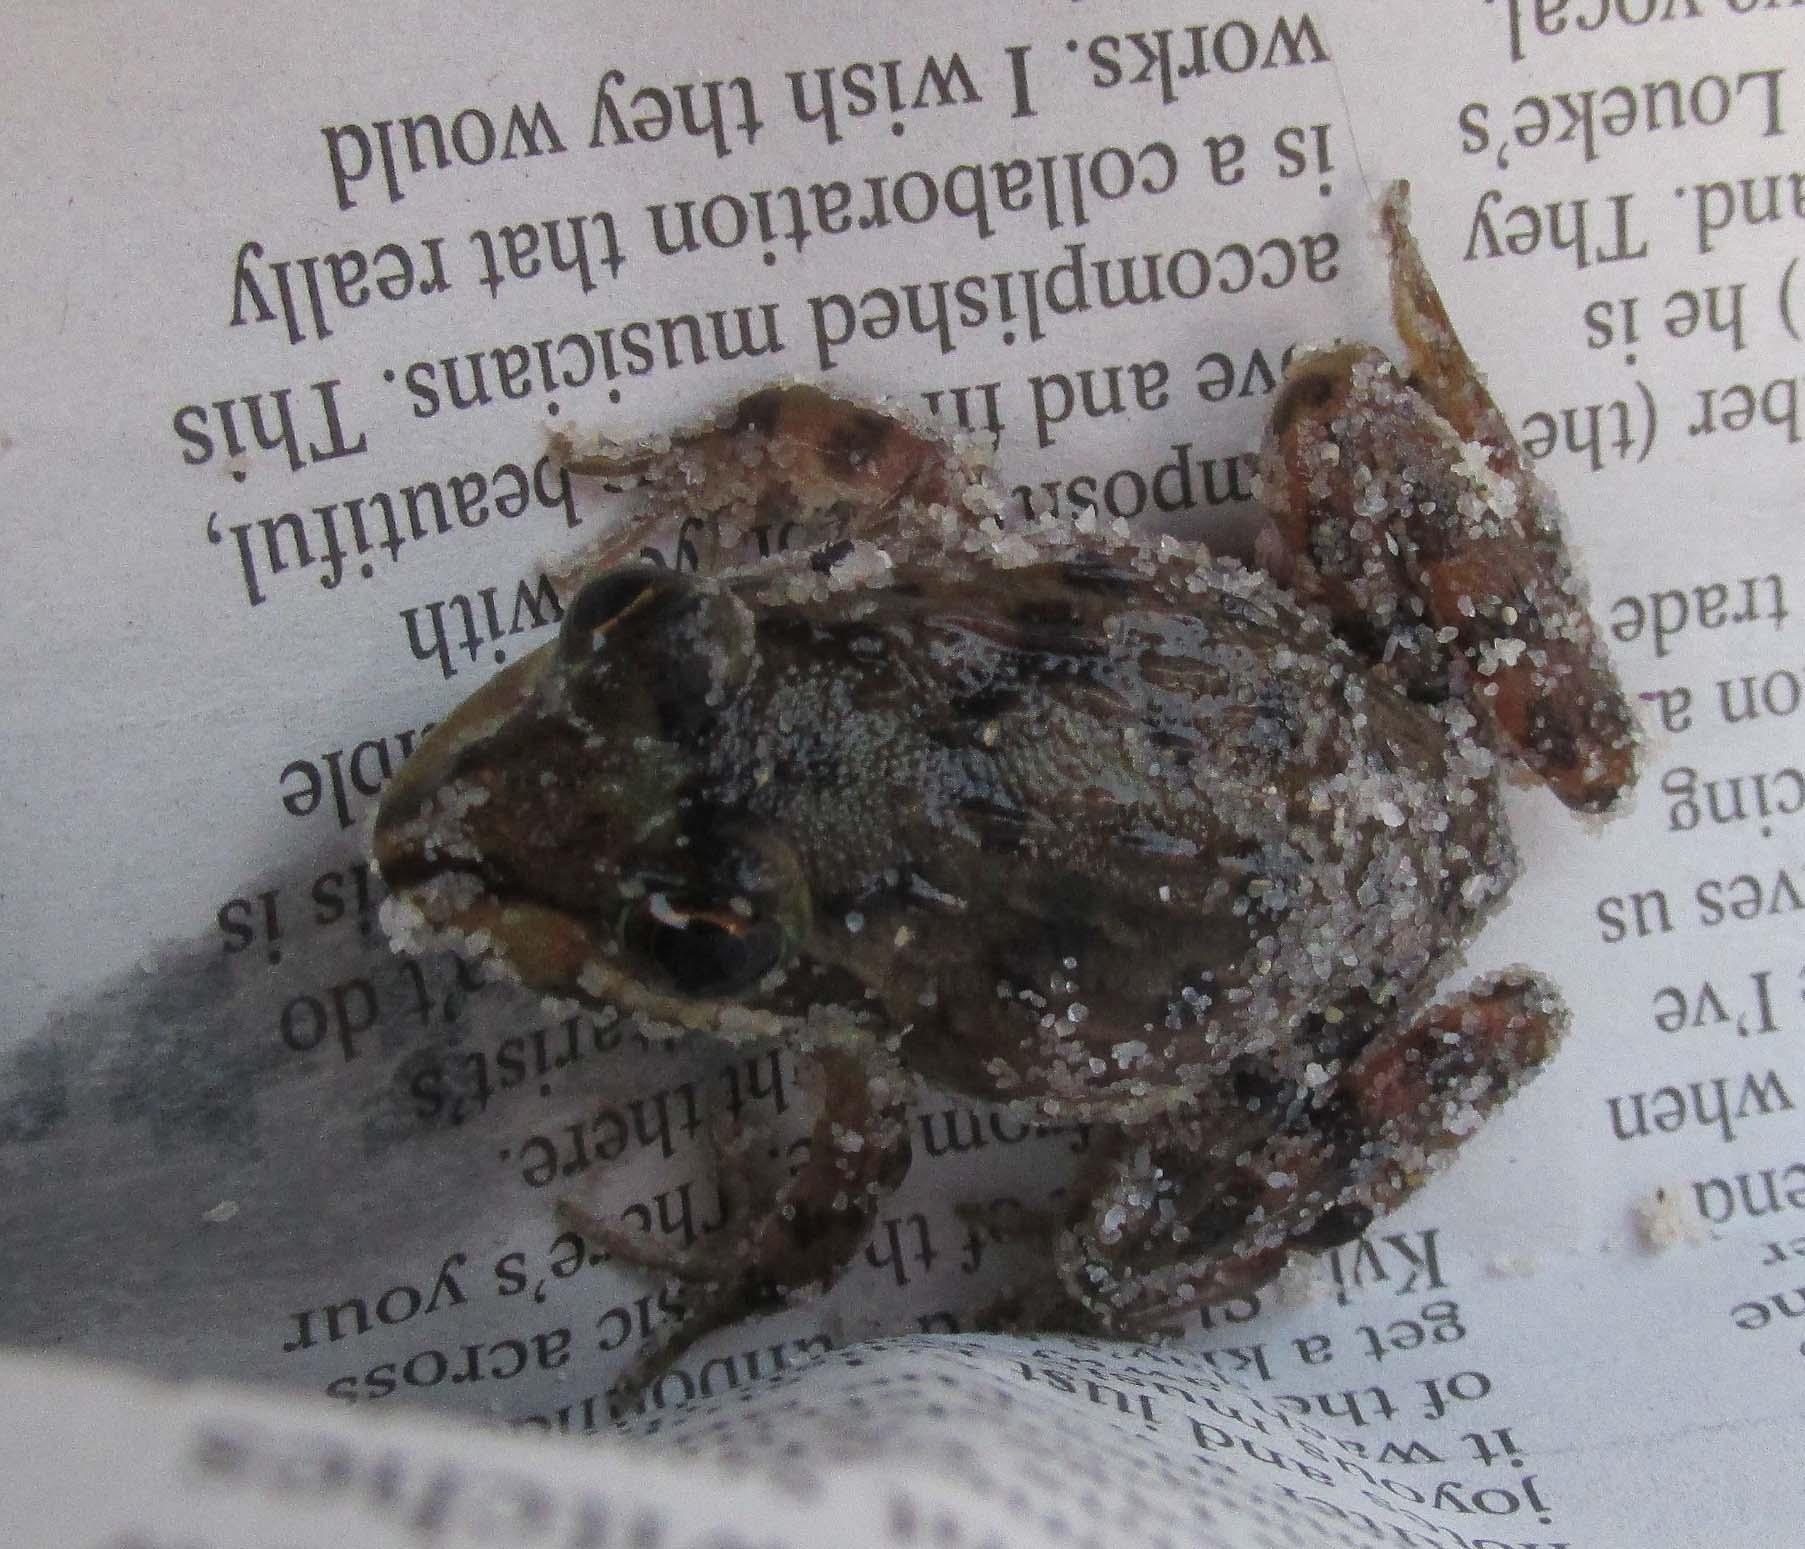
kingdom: Animalia
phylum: Chordata
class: Amphibia
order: Anura
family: Pyxicephalidae
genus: Amietia
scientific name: Amietia fuscigula
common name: Cape rana
